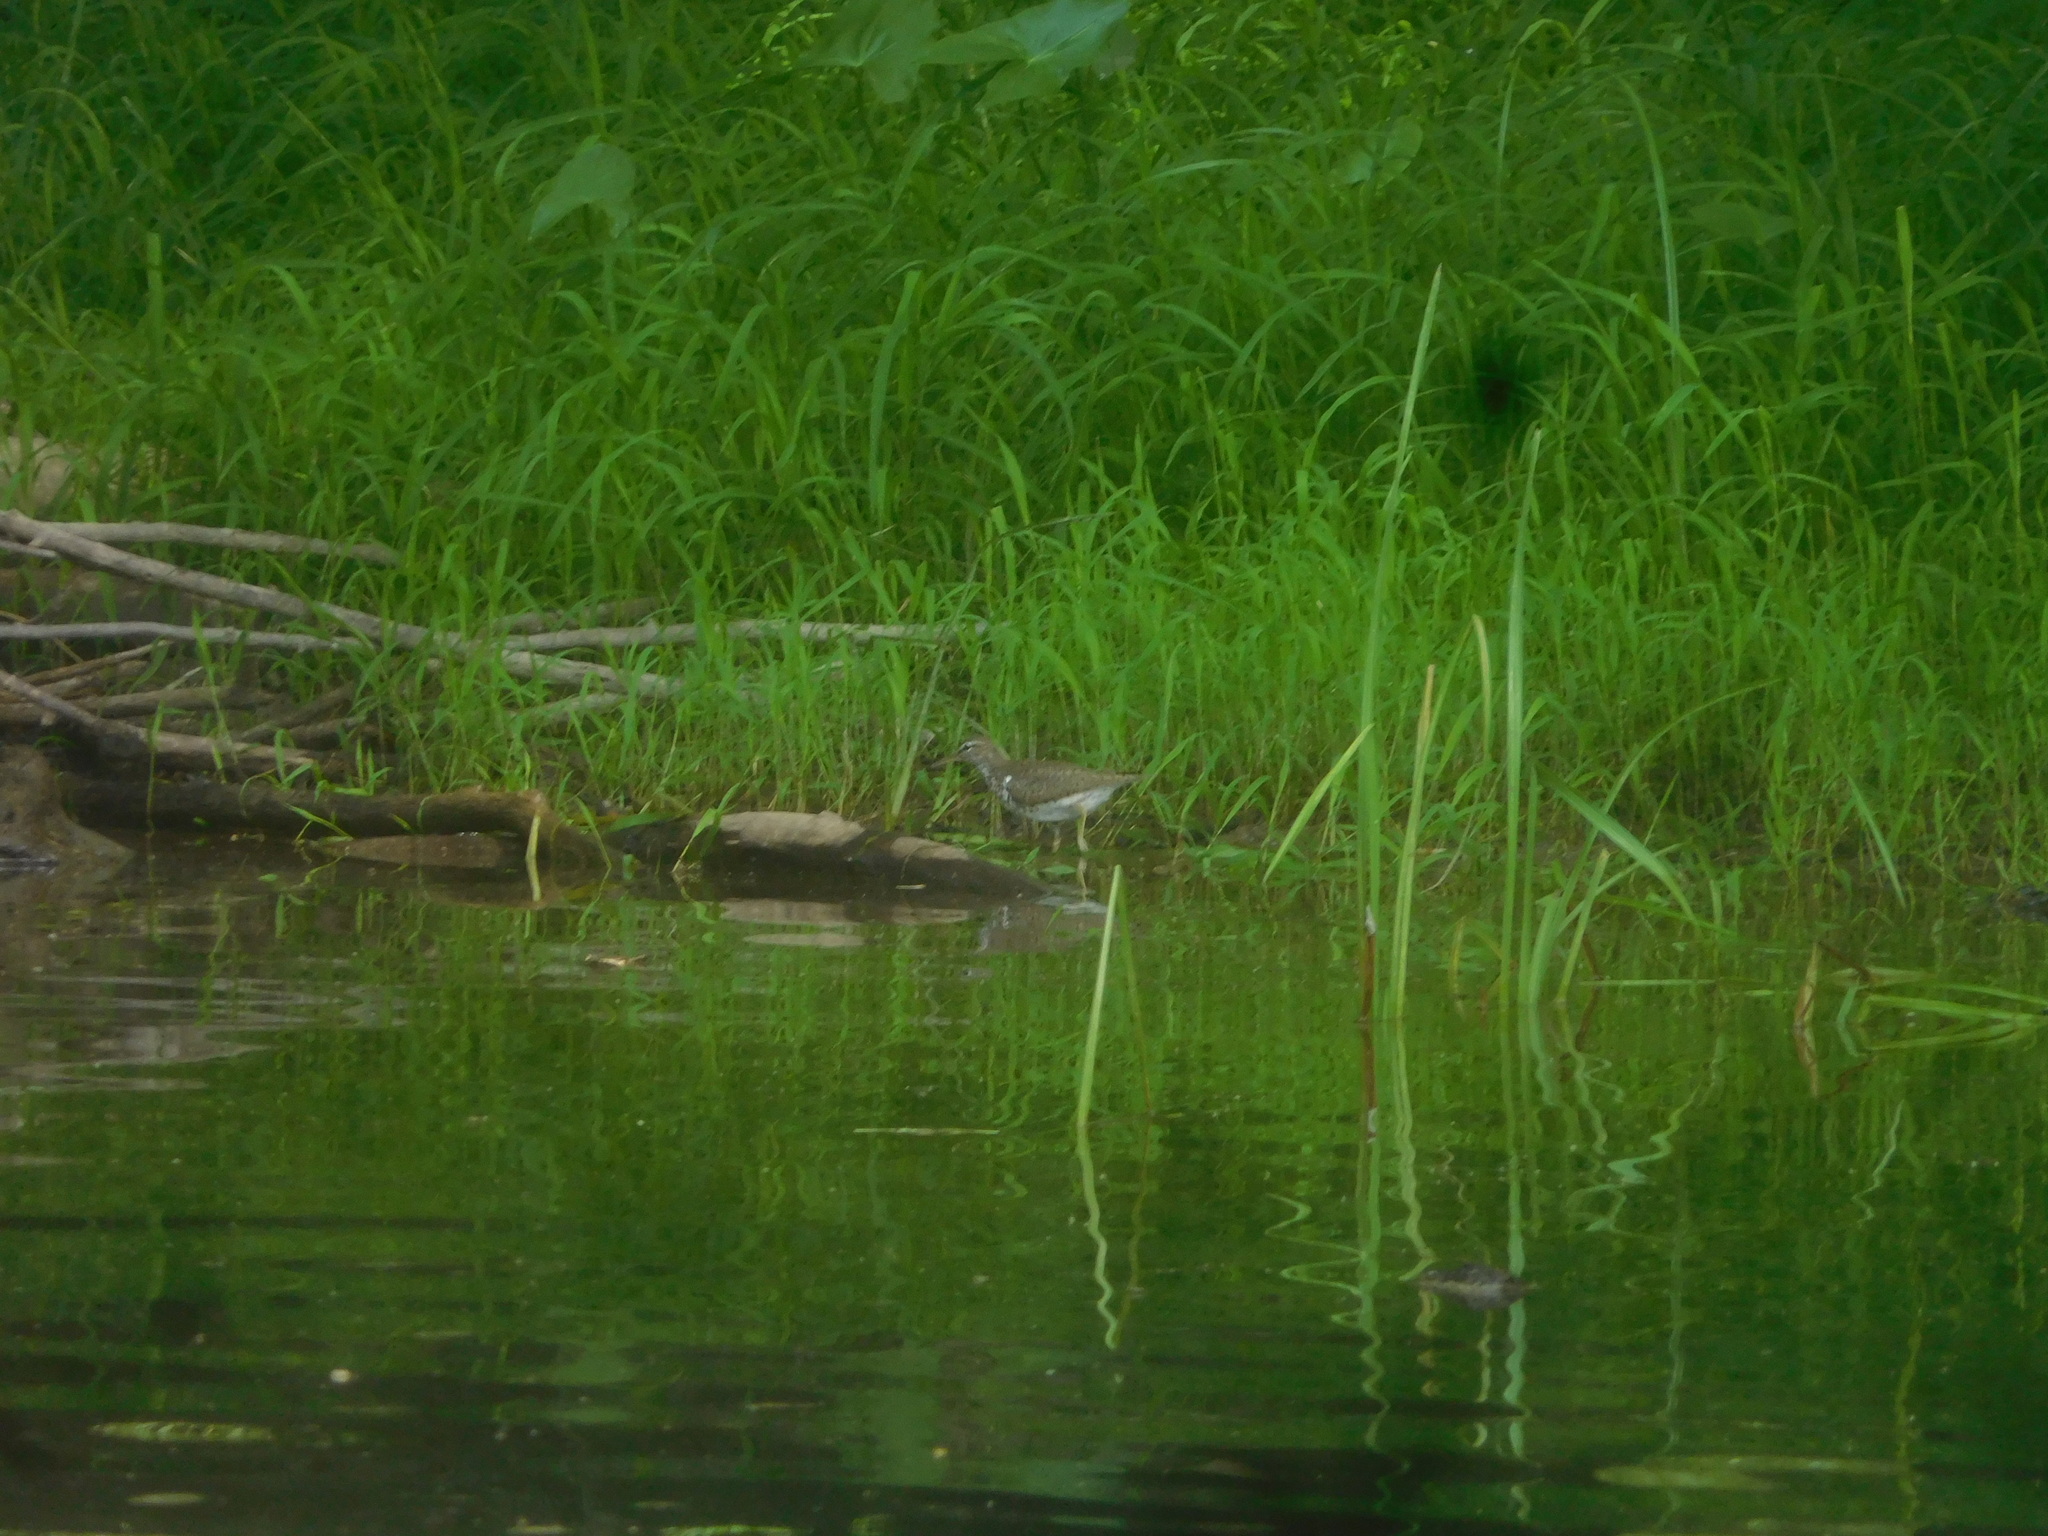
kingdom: Animalia
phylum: Chordata
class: Aves
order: Charadriiformes
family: Scolopacidae
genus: Actitis
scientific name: Actitis macularius
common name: Spotted sandpiper
